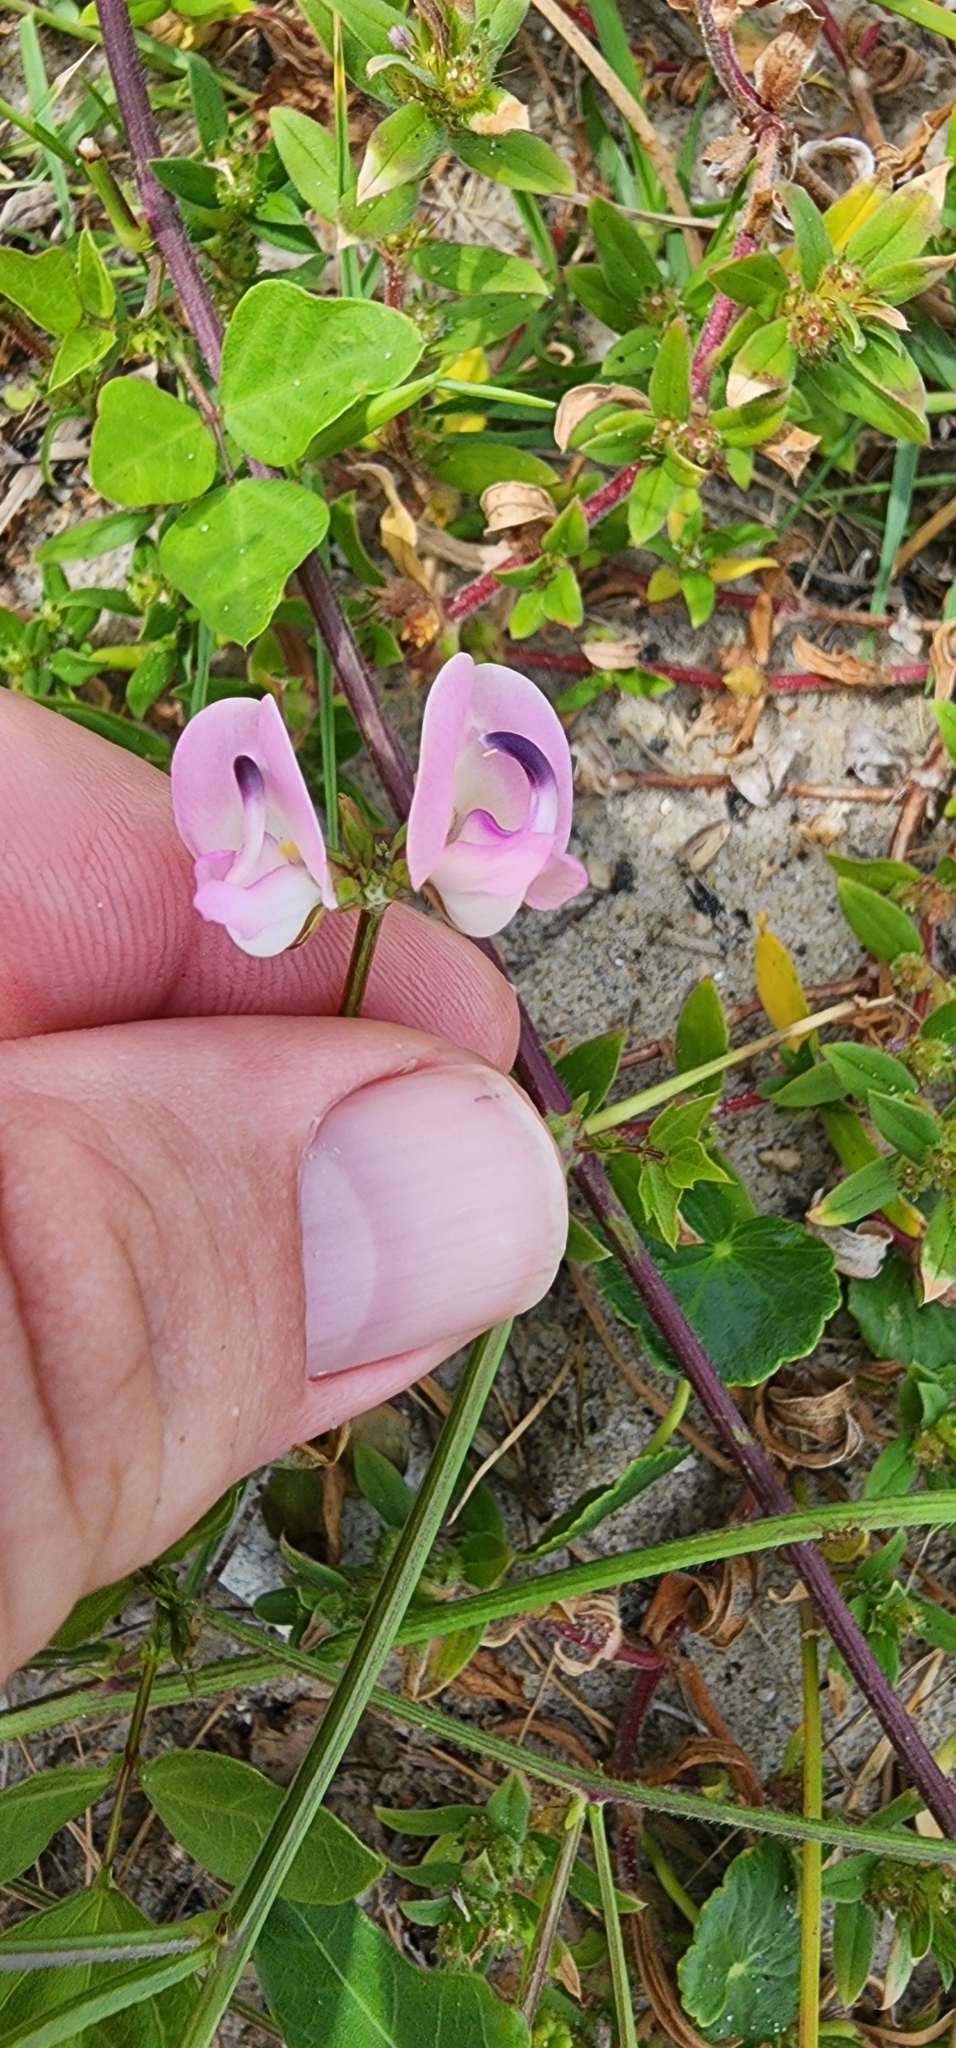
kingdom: Plantae
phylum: Tracheophyta
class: Magnoliopsida
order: Fabales
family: Fabaceae
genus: Strophostyles
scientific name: Strophostyles helvola
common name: Trailing wild bean
